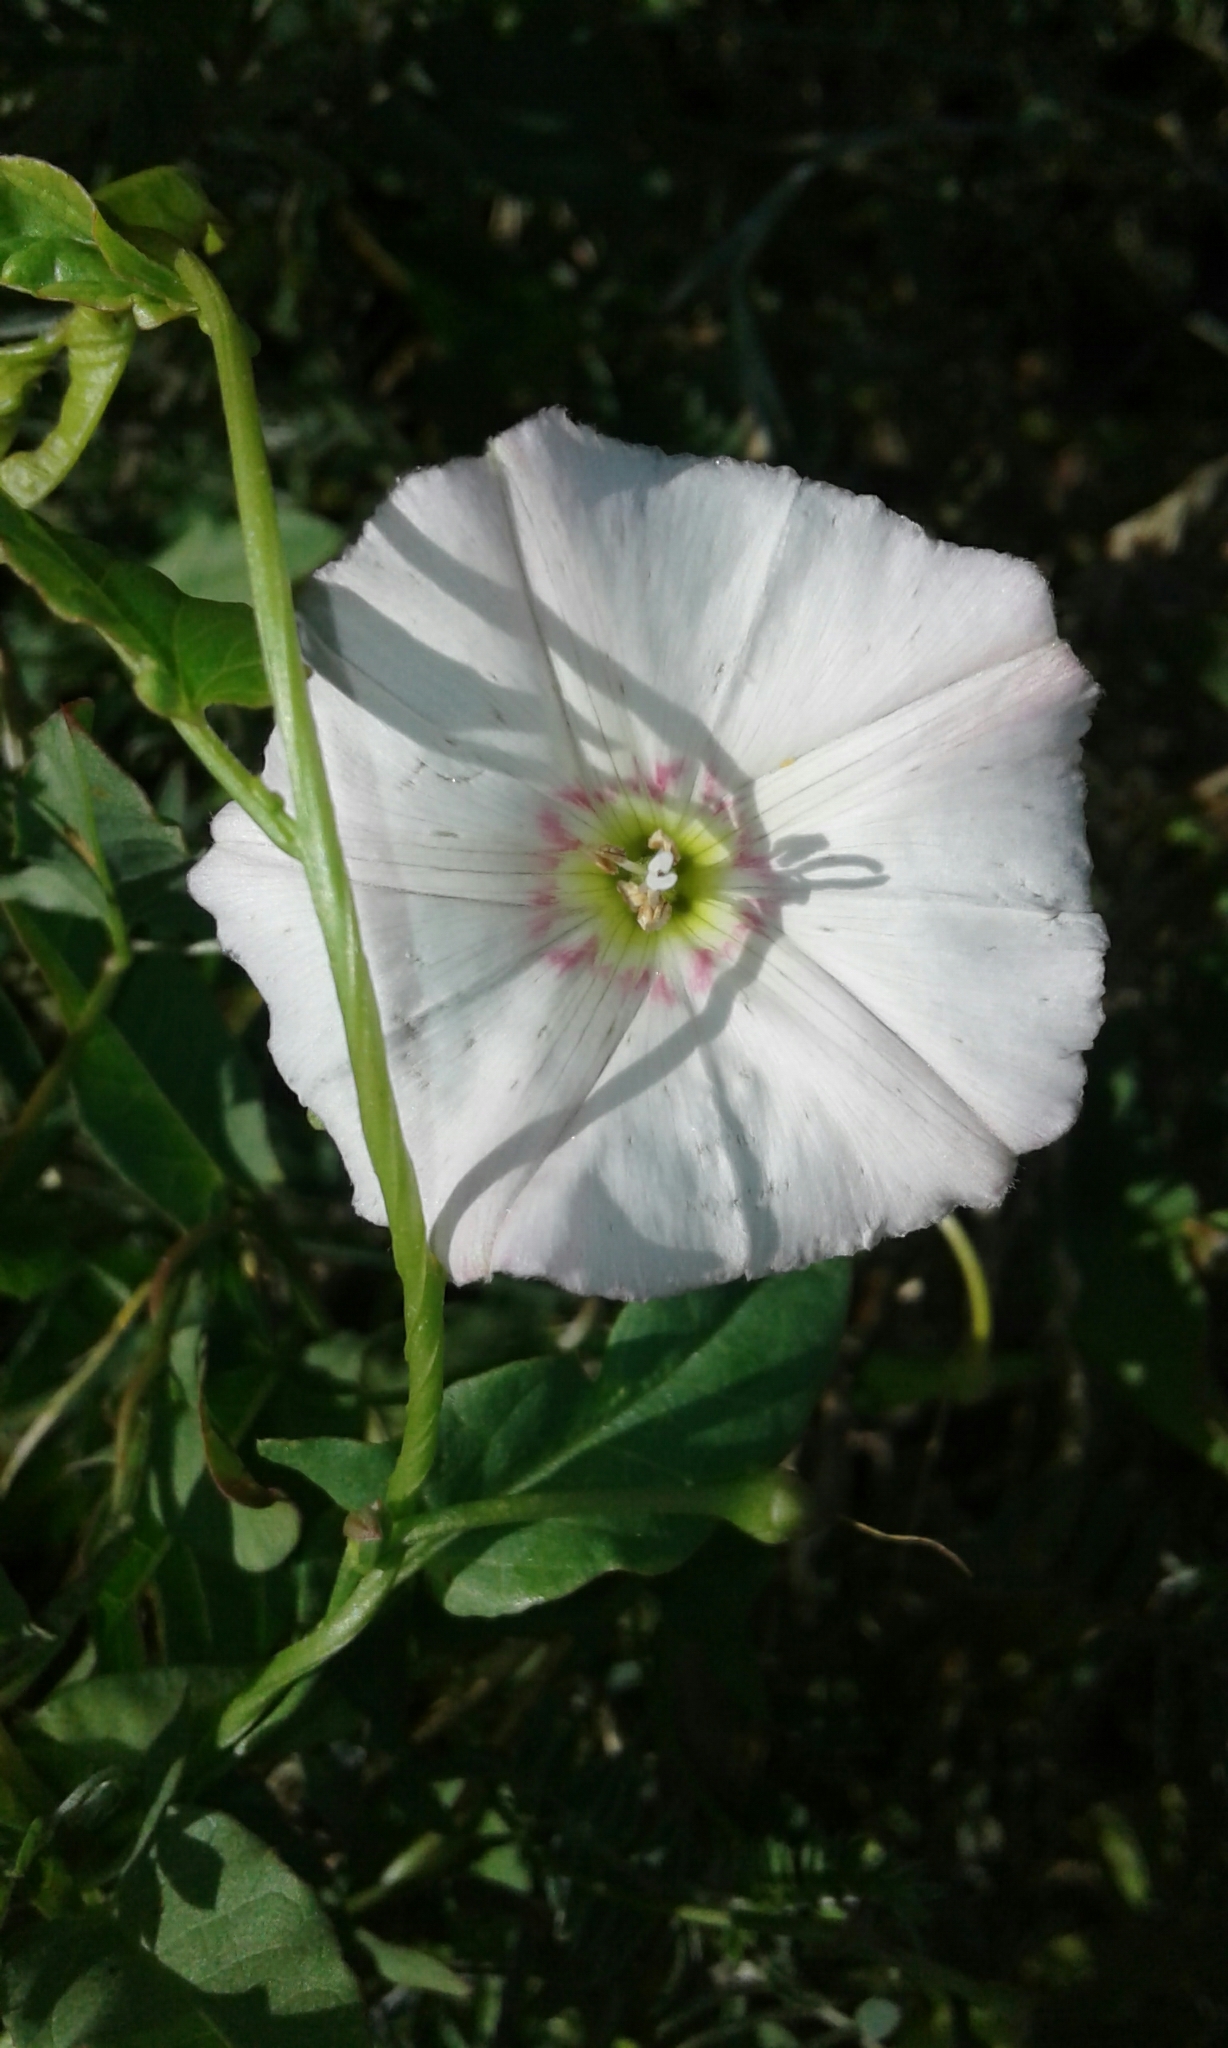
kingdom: Plantae
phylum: Tracheophyta
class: Magnoliopsida
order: Solanales
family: Convolvulaceae
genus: Convolvulus
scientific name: Convolvulus arvensis
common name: Field bindweed
